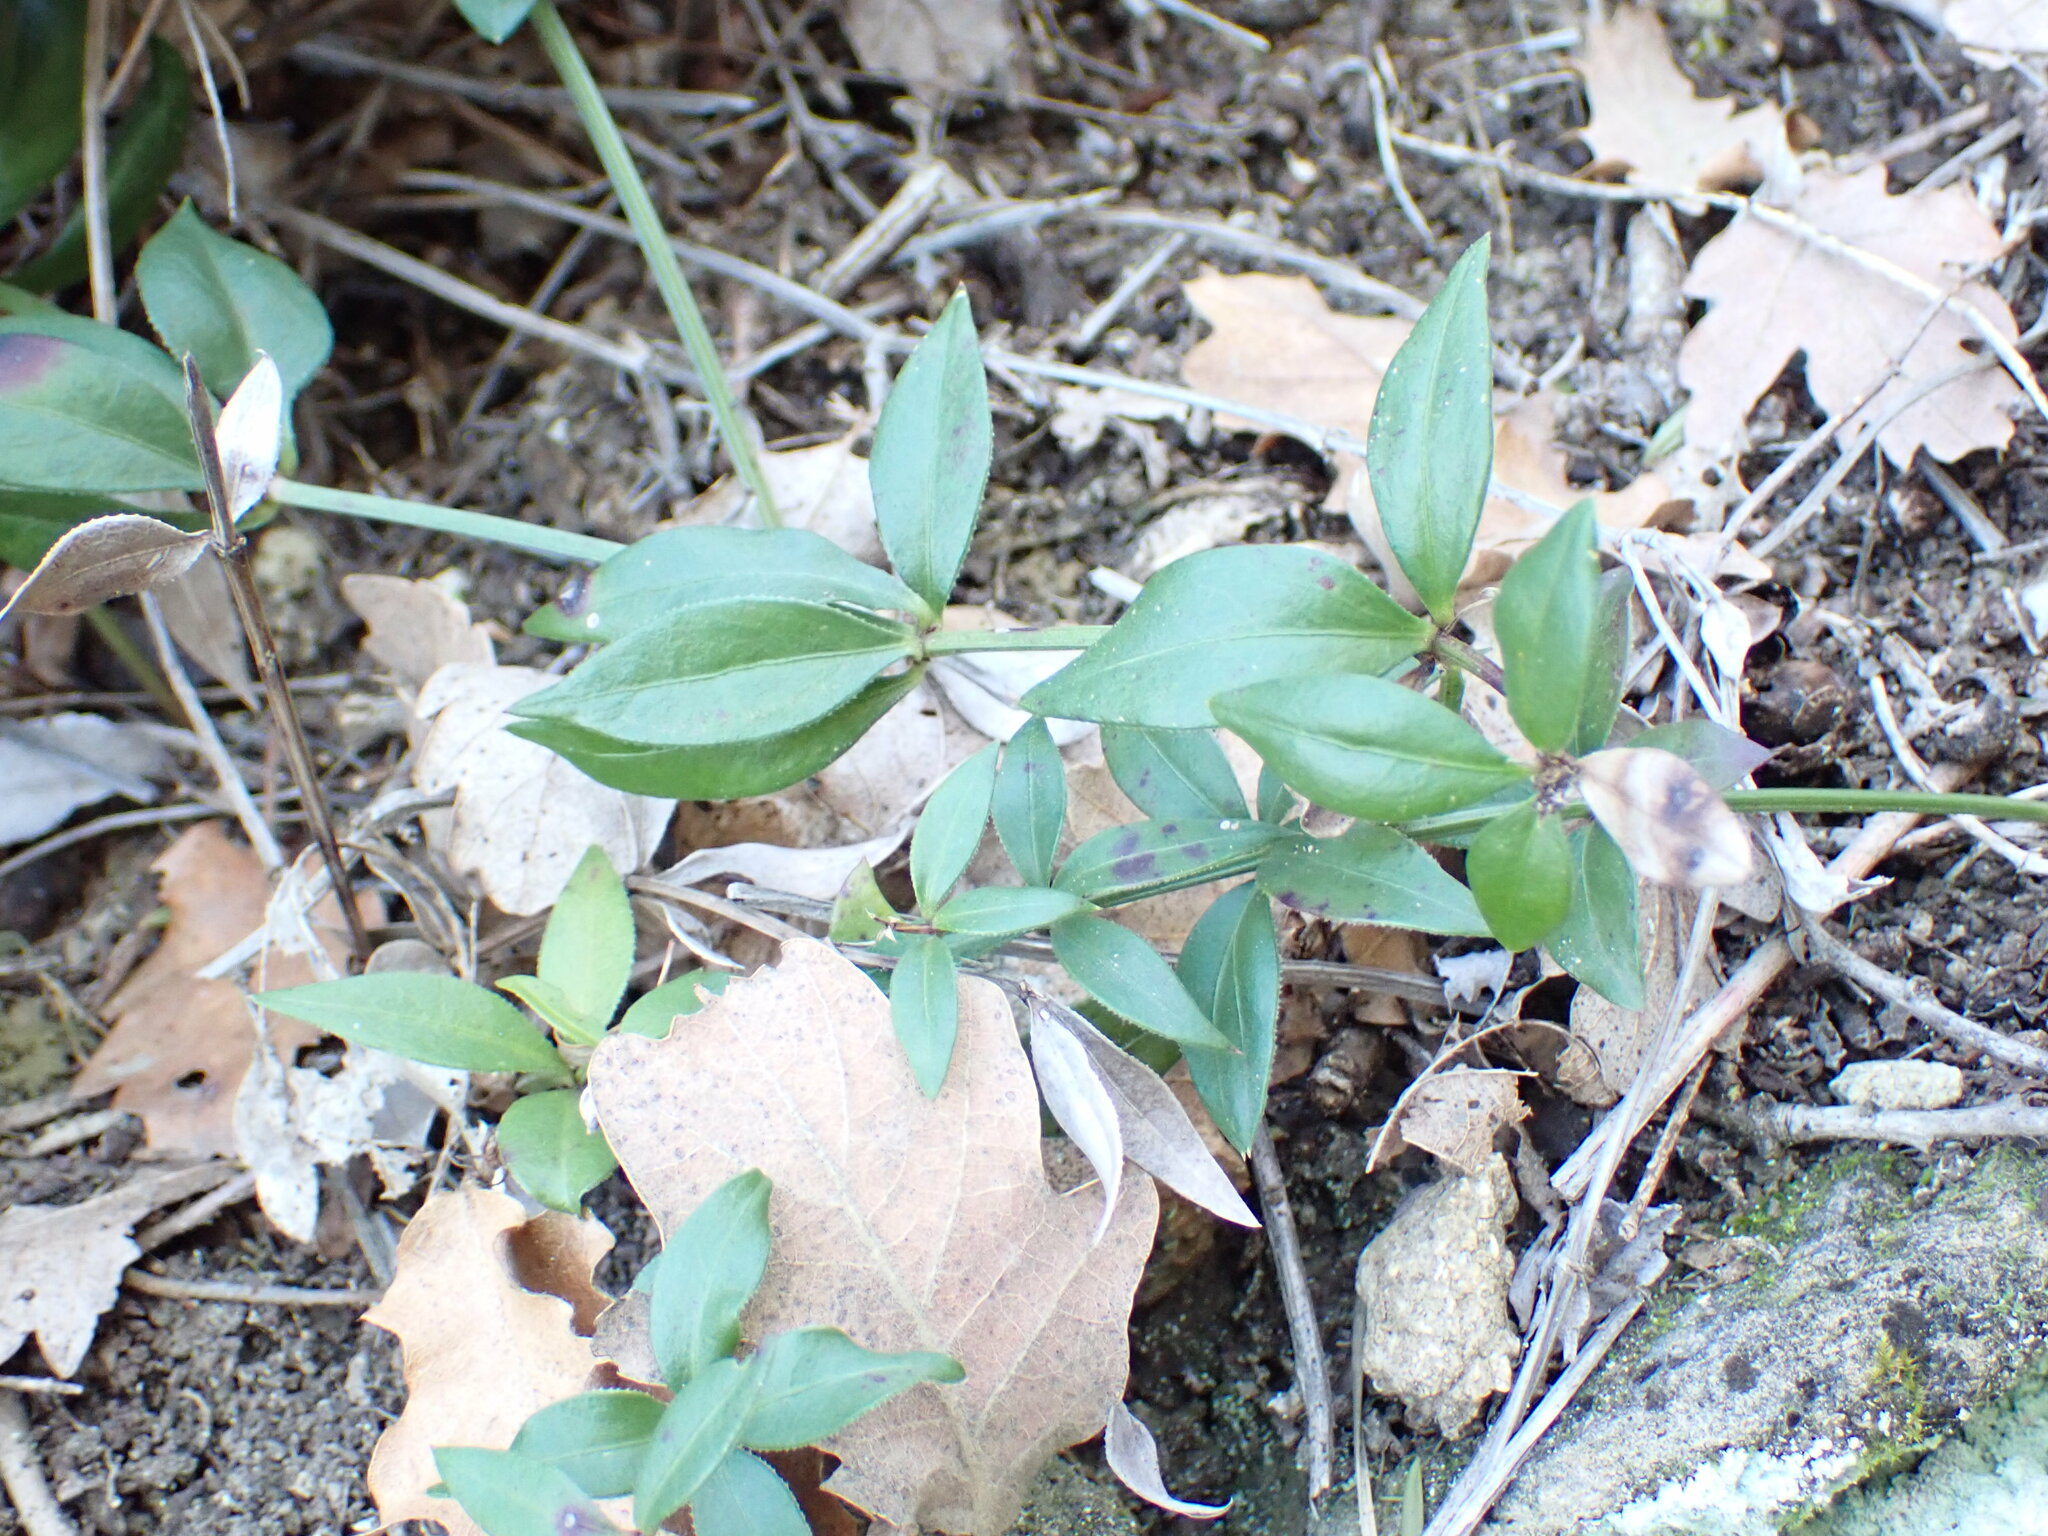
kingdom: Plantae
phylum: Tracheophyta
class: Magnoliopsida
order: Gentianales
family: Rubiaceae
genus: Rubia
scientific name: Rubia peregrina
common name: Wild madder
